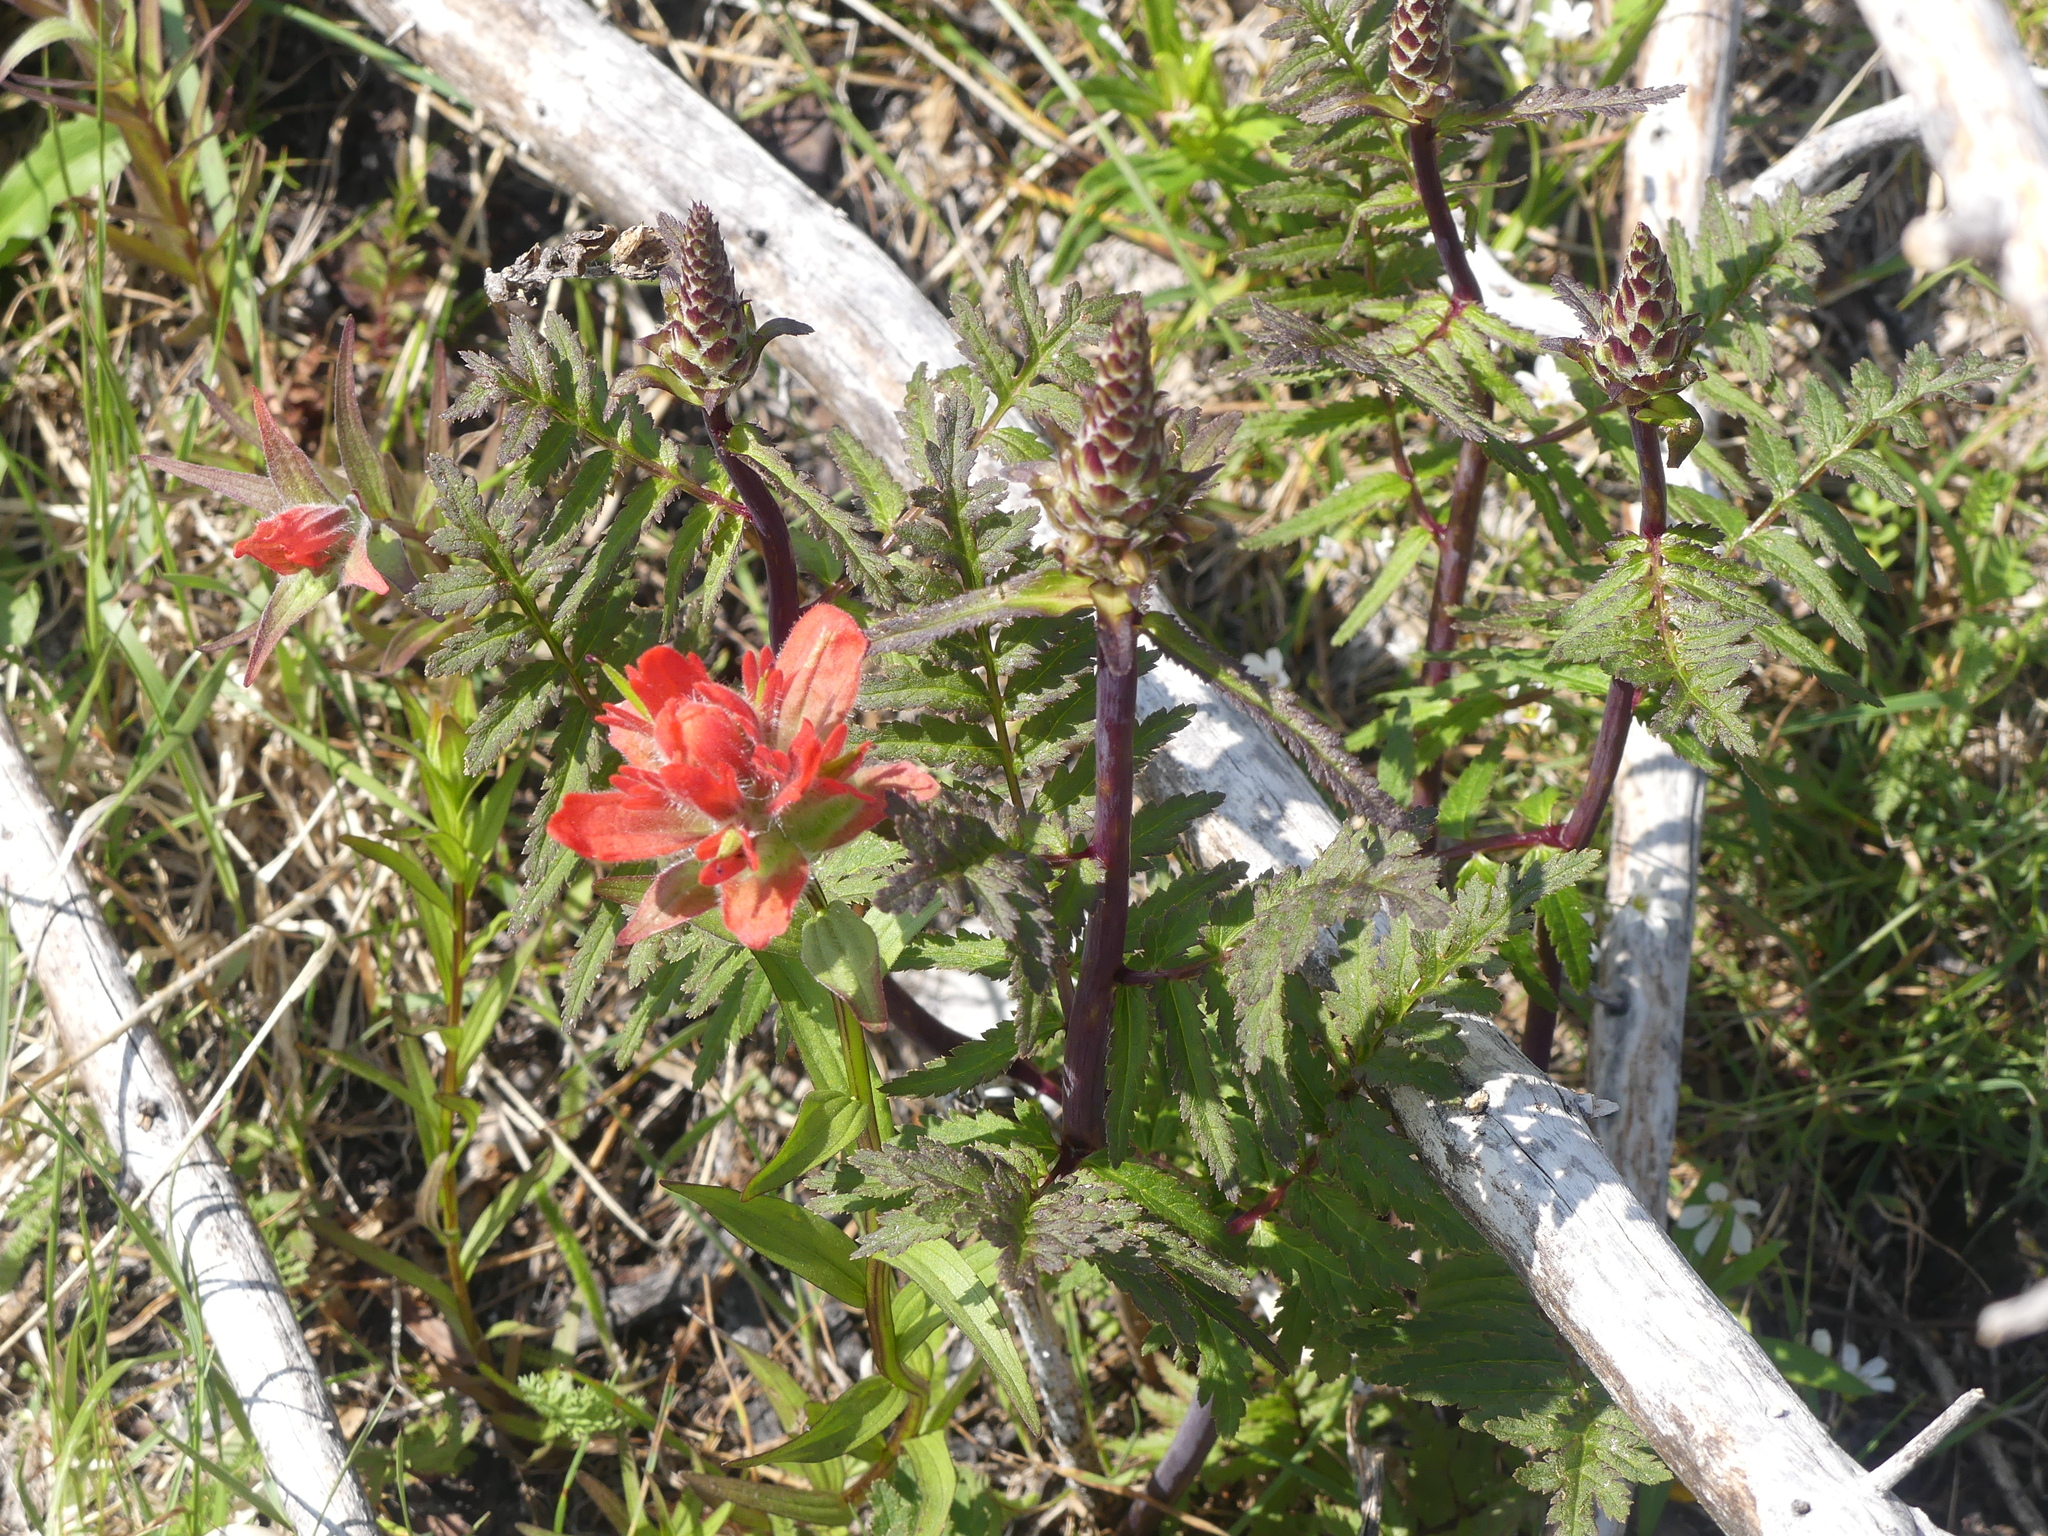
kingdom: Plantae
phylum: Tracheophyta
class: Magnoliopsida
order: Lamiales
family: Orobanchaceae
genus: Pedicularis
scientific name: Pedicularis bracteosa
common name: Bracted lousewort
